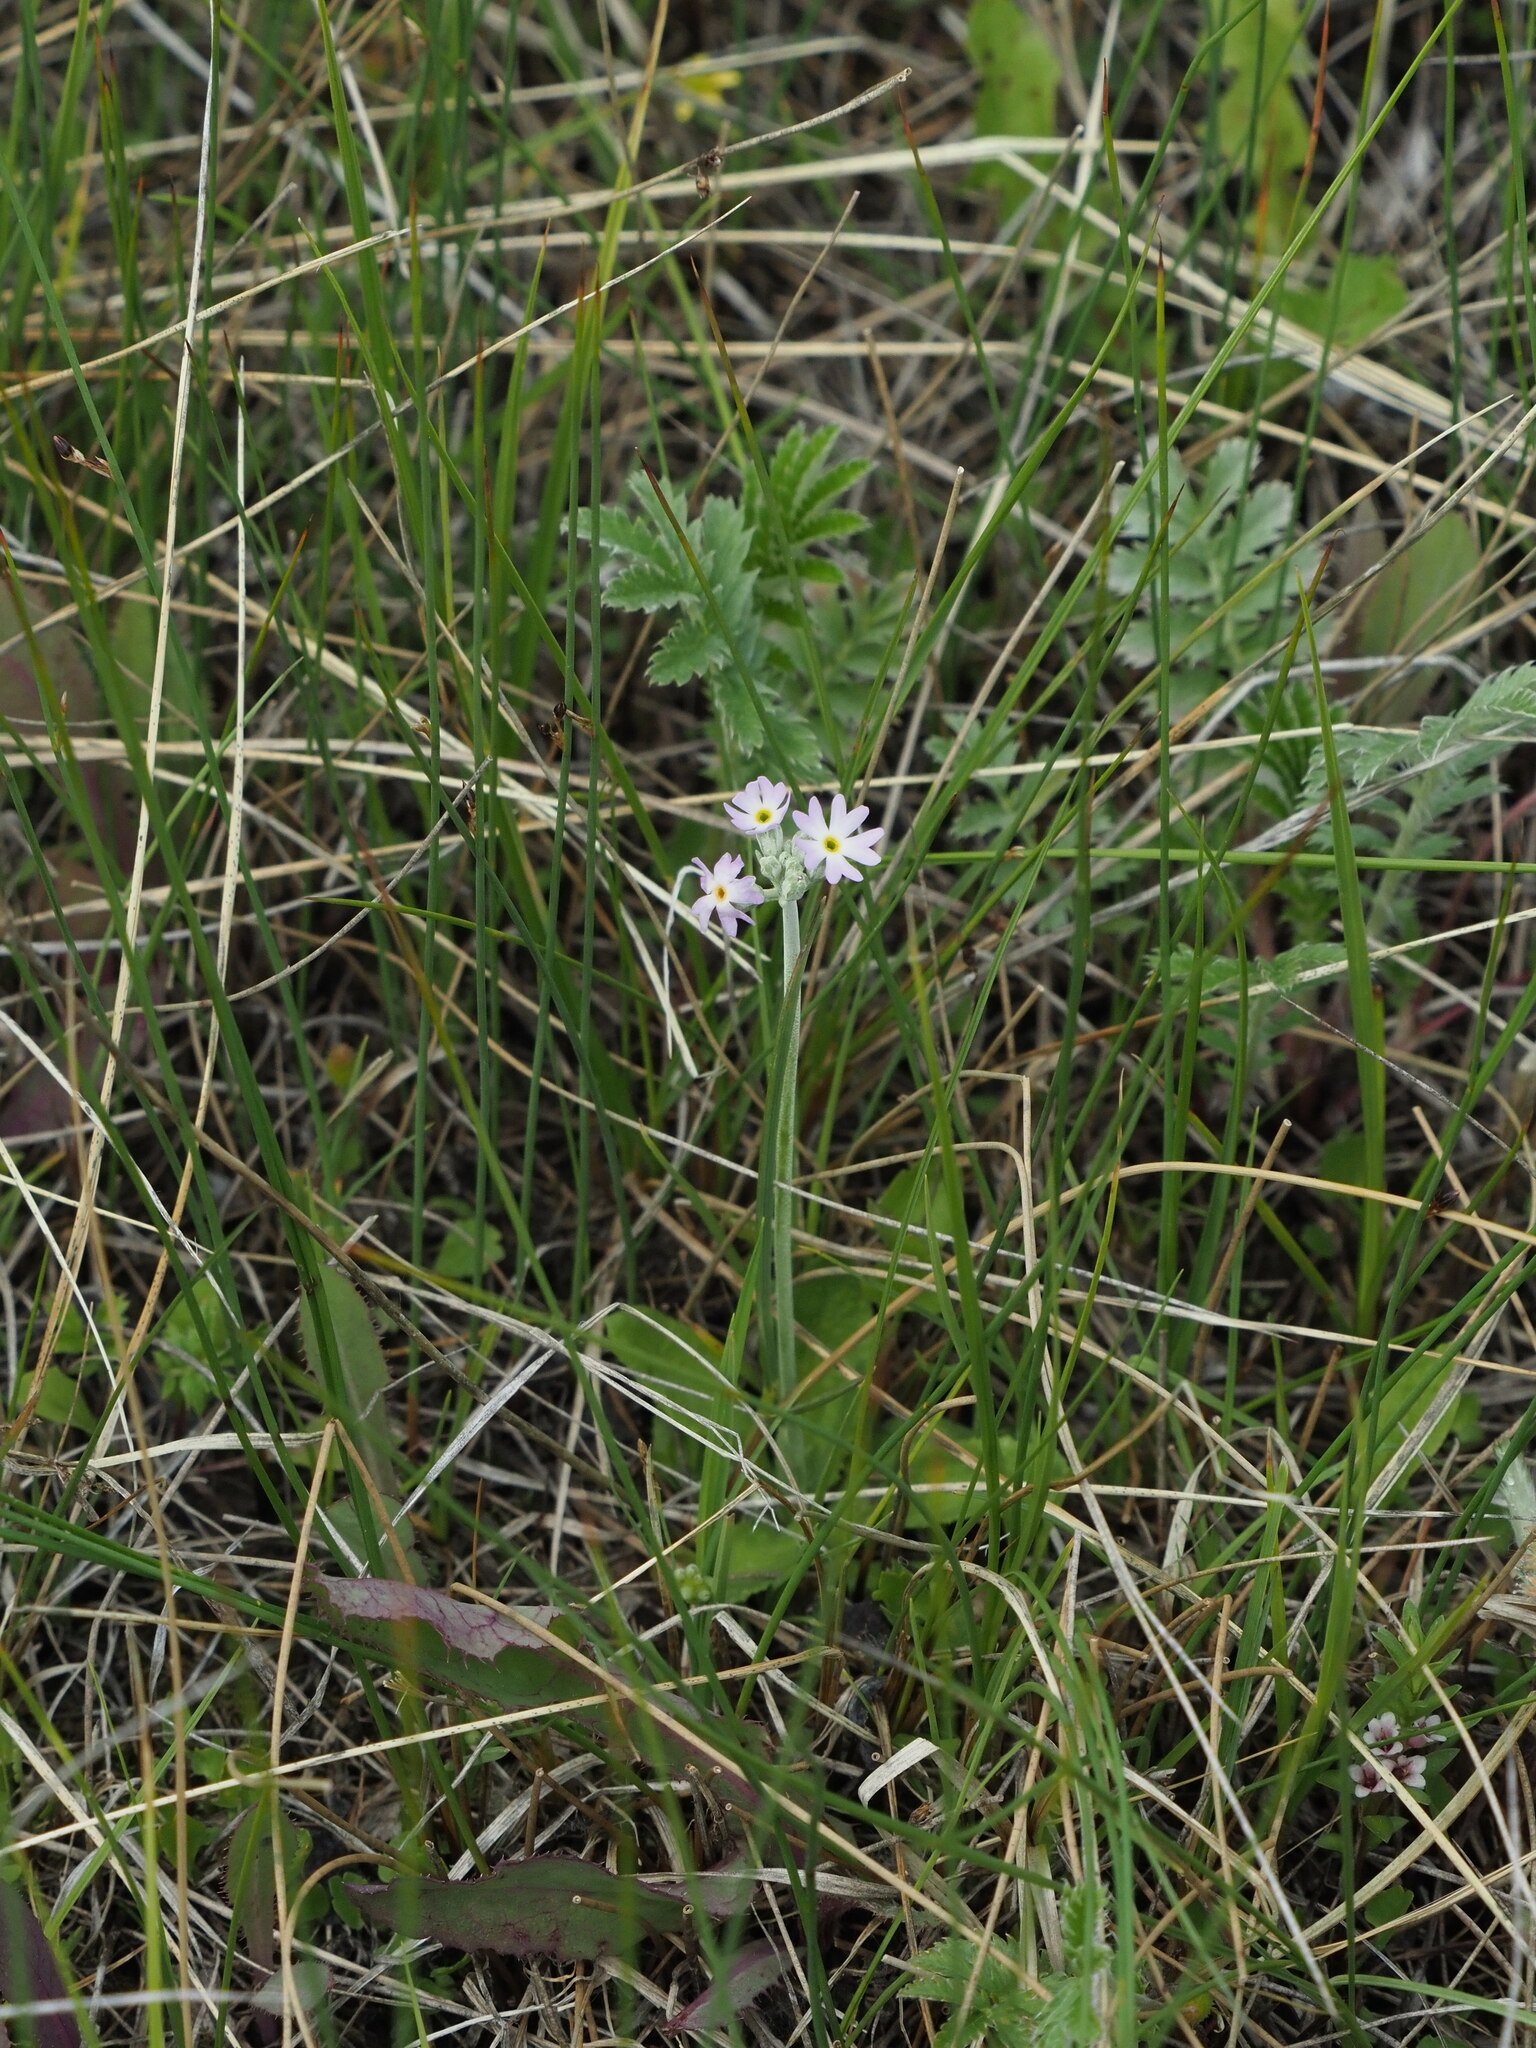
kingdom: Plantae
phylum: Tracheophyta
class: Magnoliopsida
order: Ericales
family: Primulaceae
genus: Primula
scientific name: Primula incana
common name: Hoary primrose
